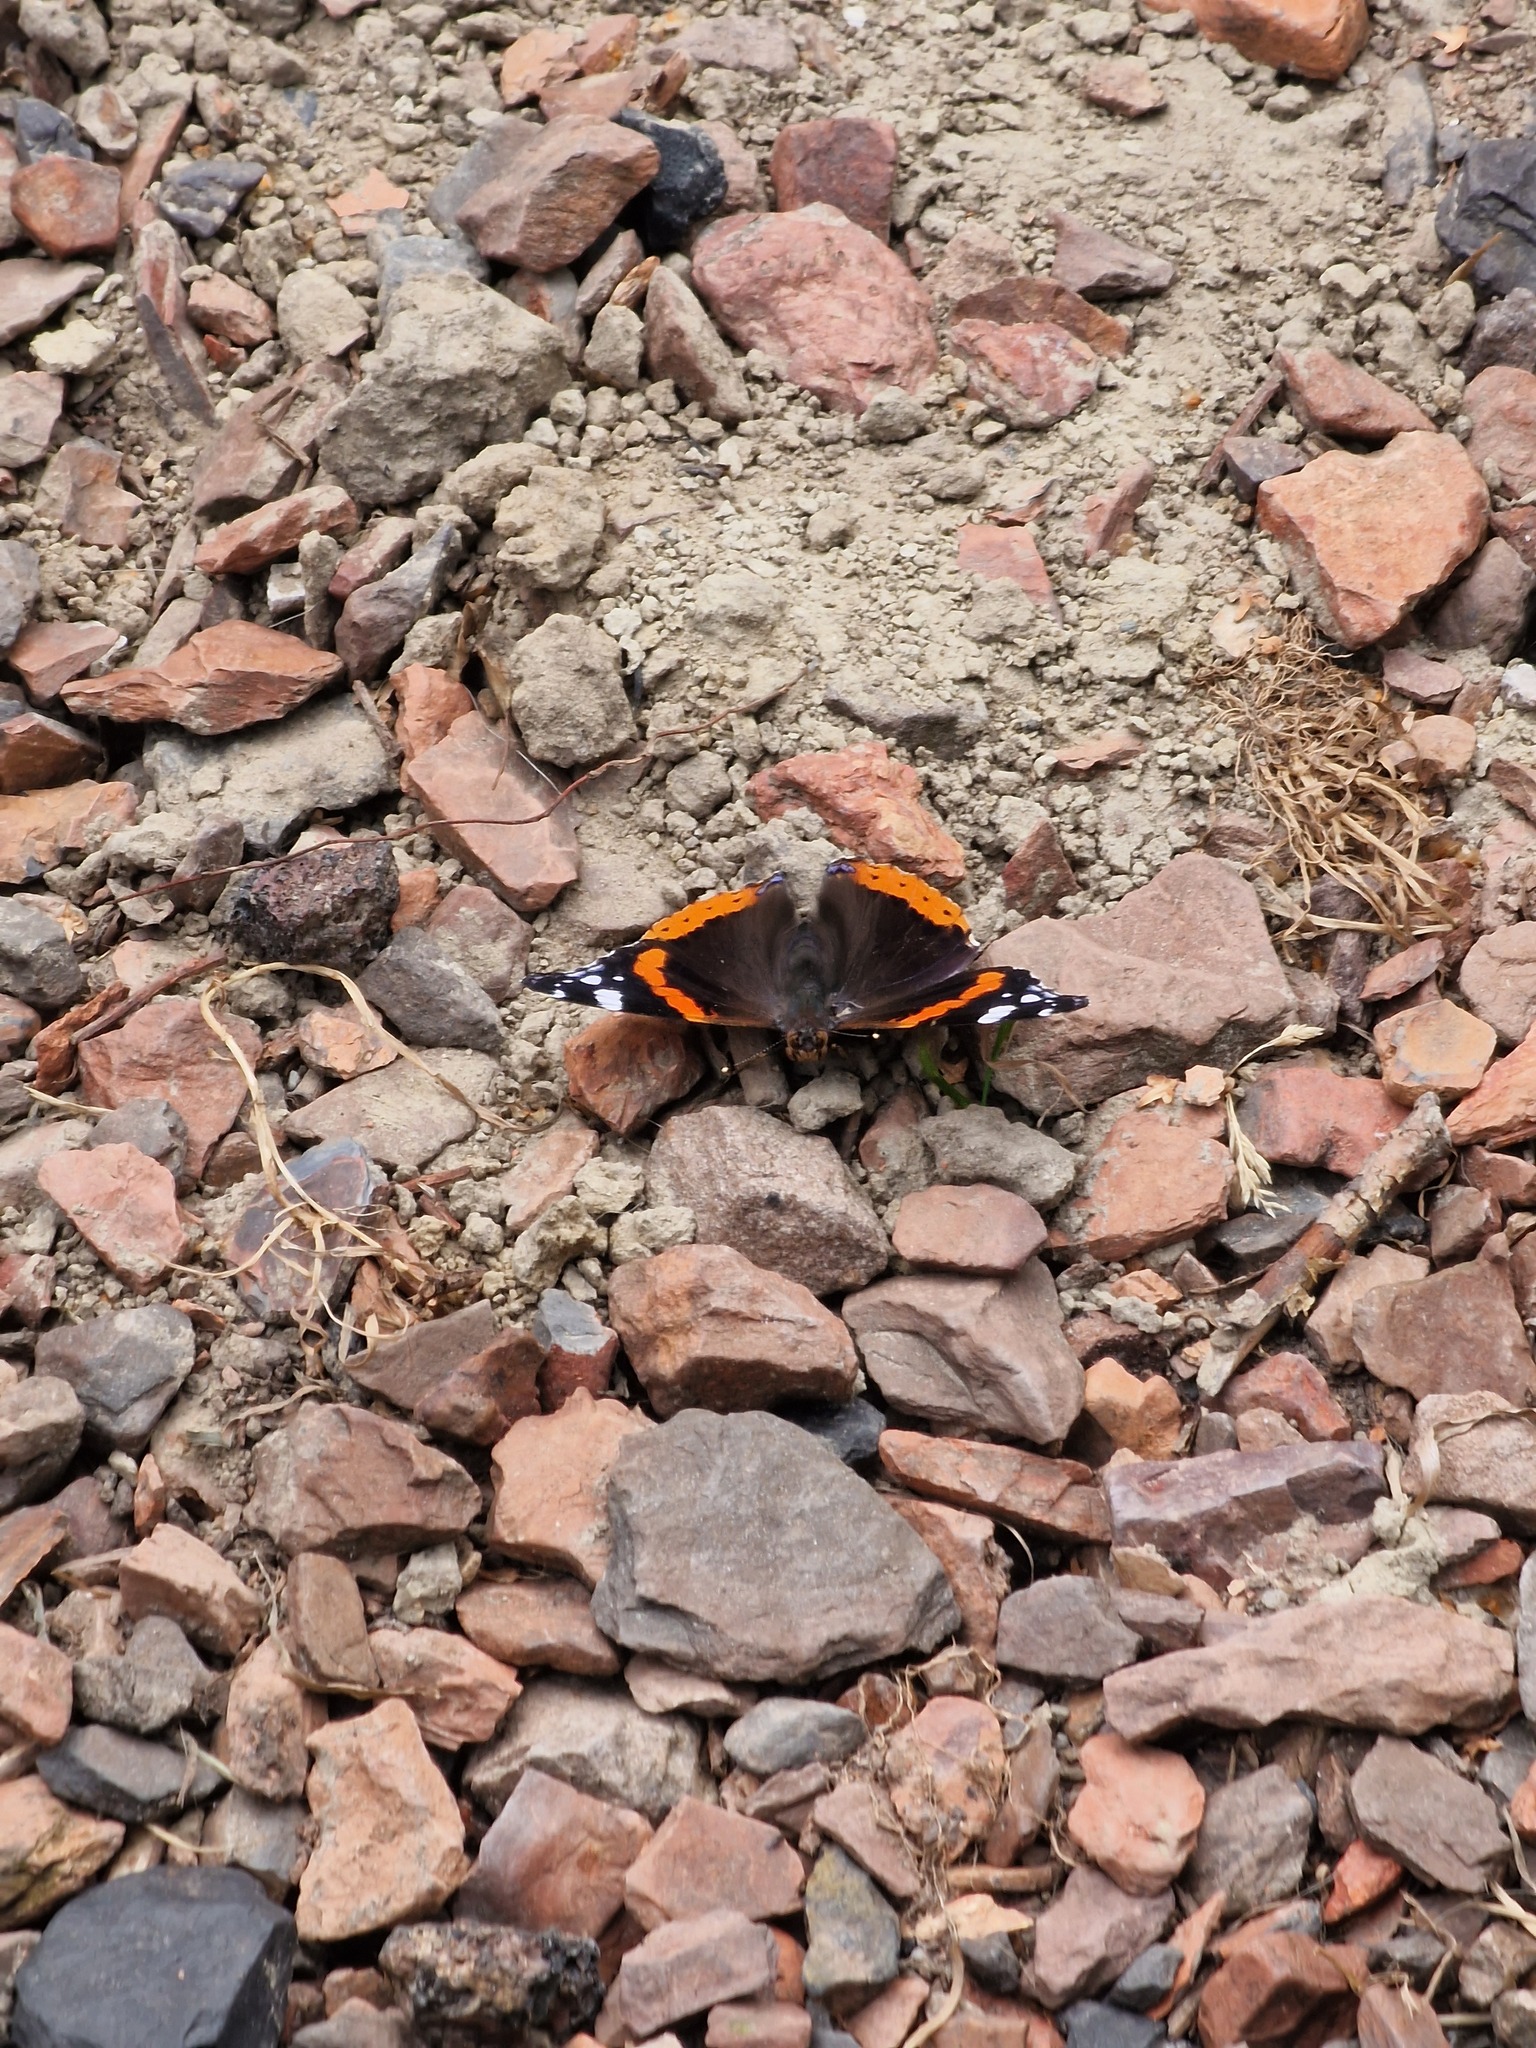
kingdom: Animalia
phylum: Arthropoda
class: Insecta
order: Lepidoptera
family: Nymphalidae
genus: Vanessa
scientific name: Vanessa atalanta
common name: Red admiral
